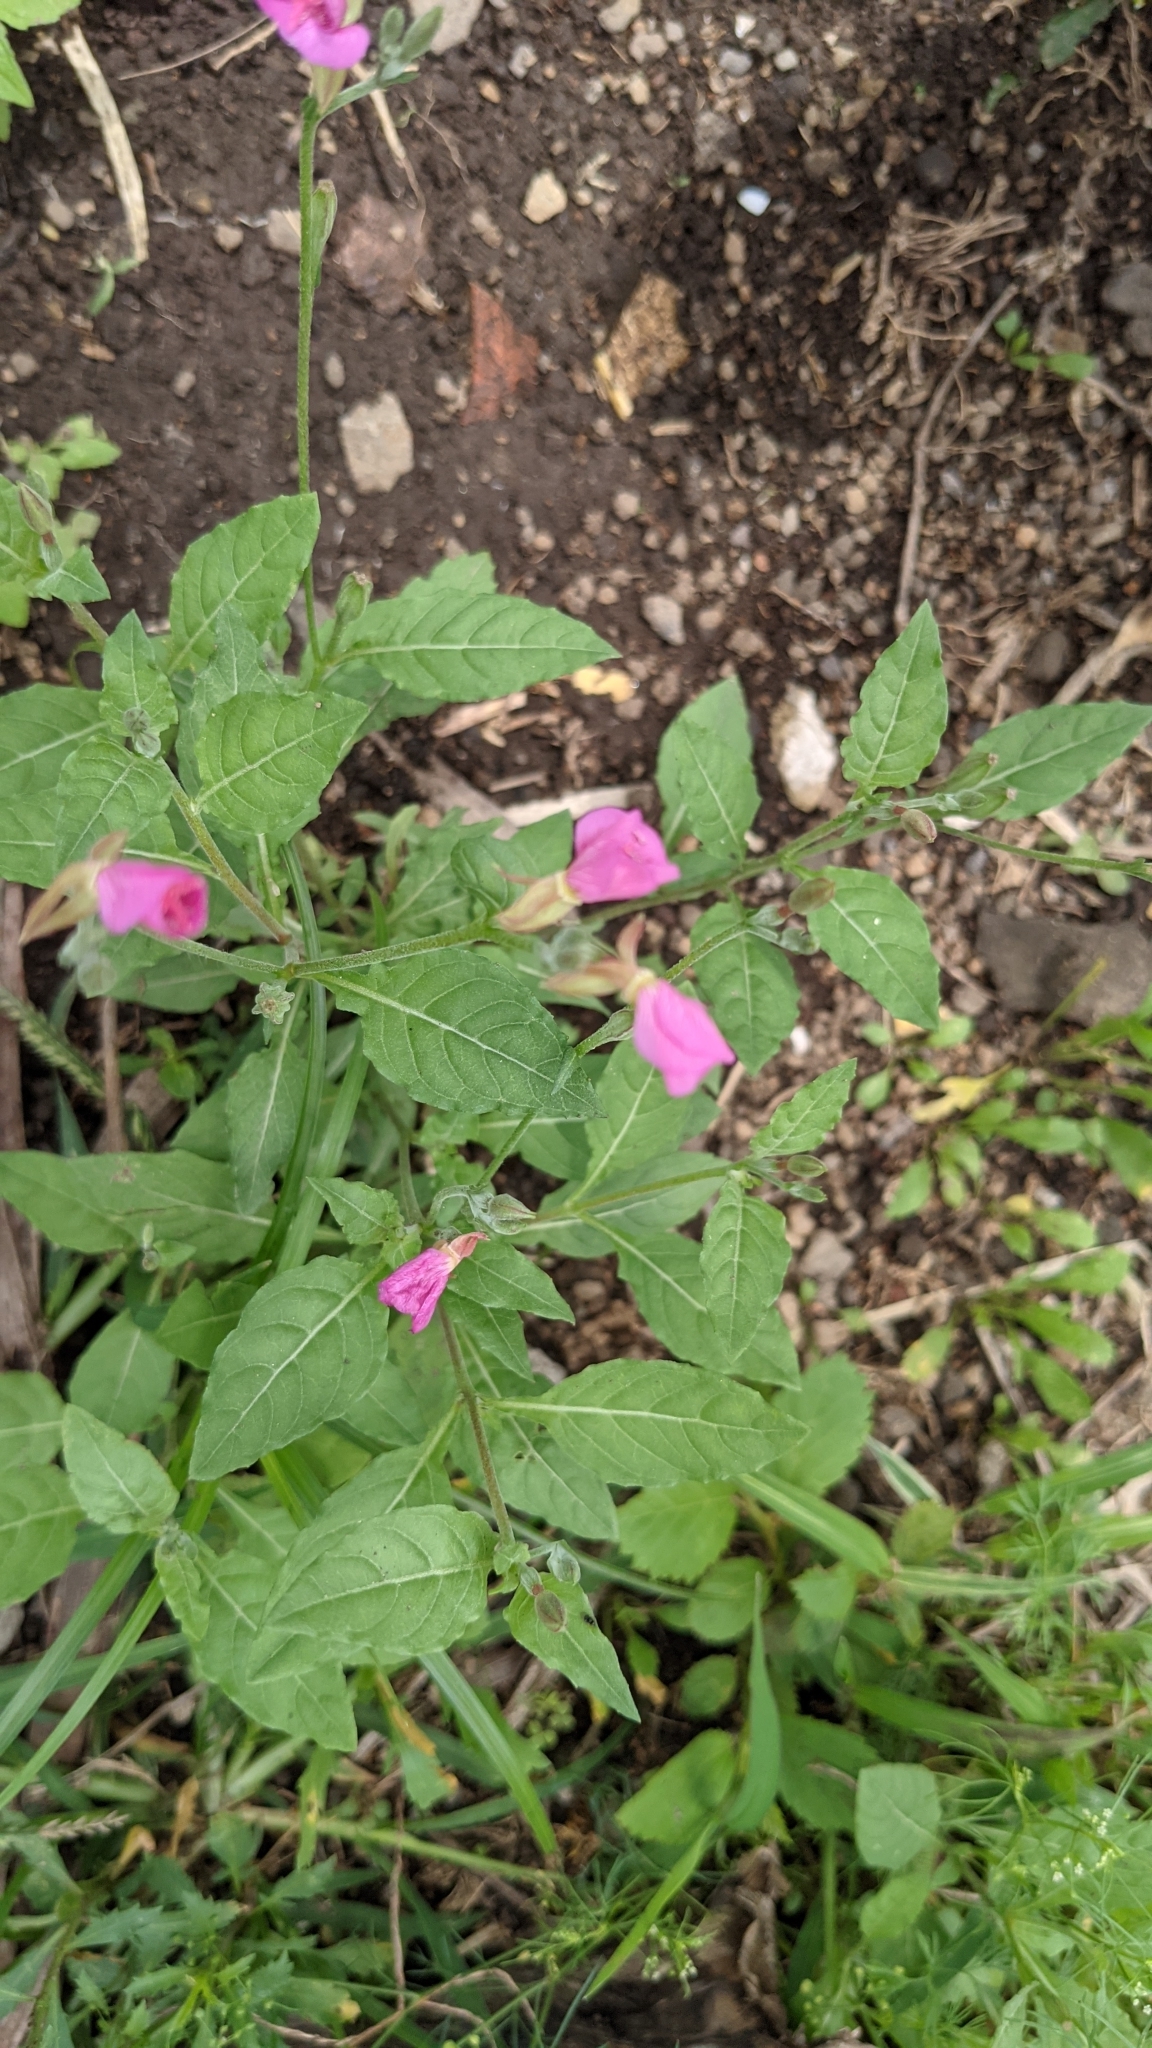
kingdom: Plantae
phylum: Tracheophyta
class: Magnoliopsida
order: Myrtales
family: Onagraceae
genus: Oenothera
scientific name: Oenothera rosea
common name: Rosy evening-primrose
